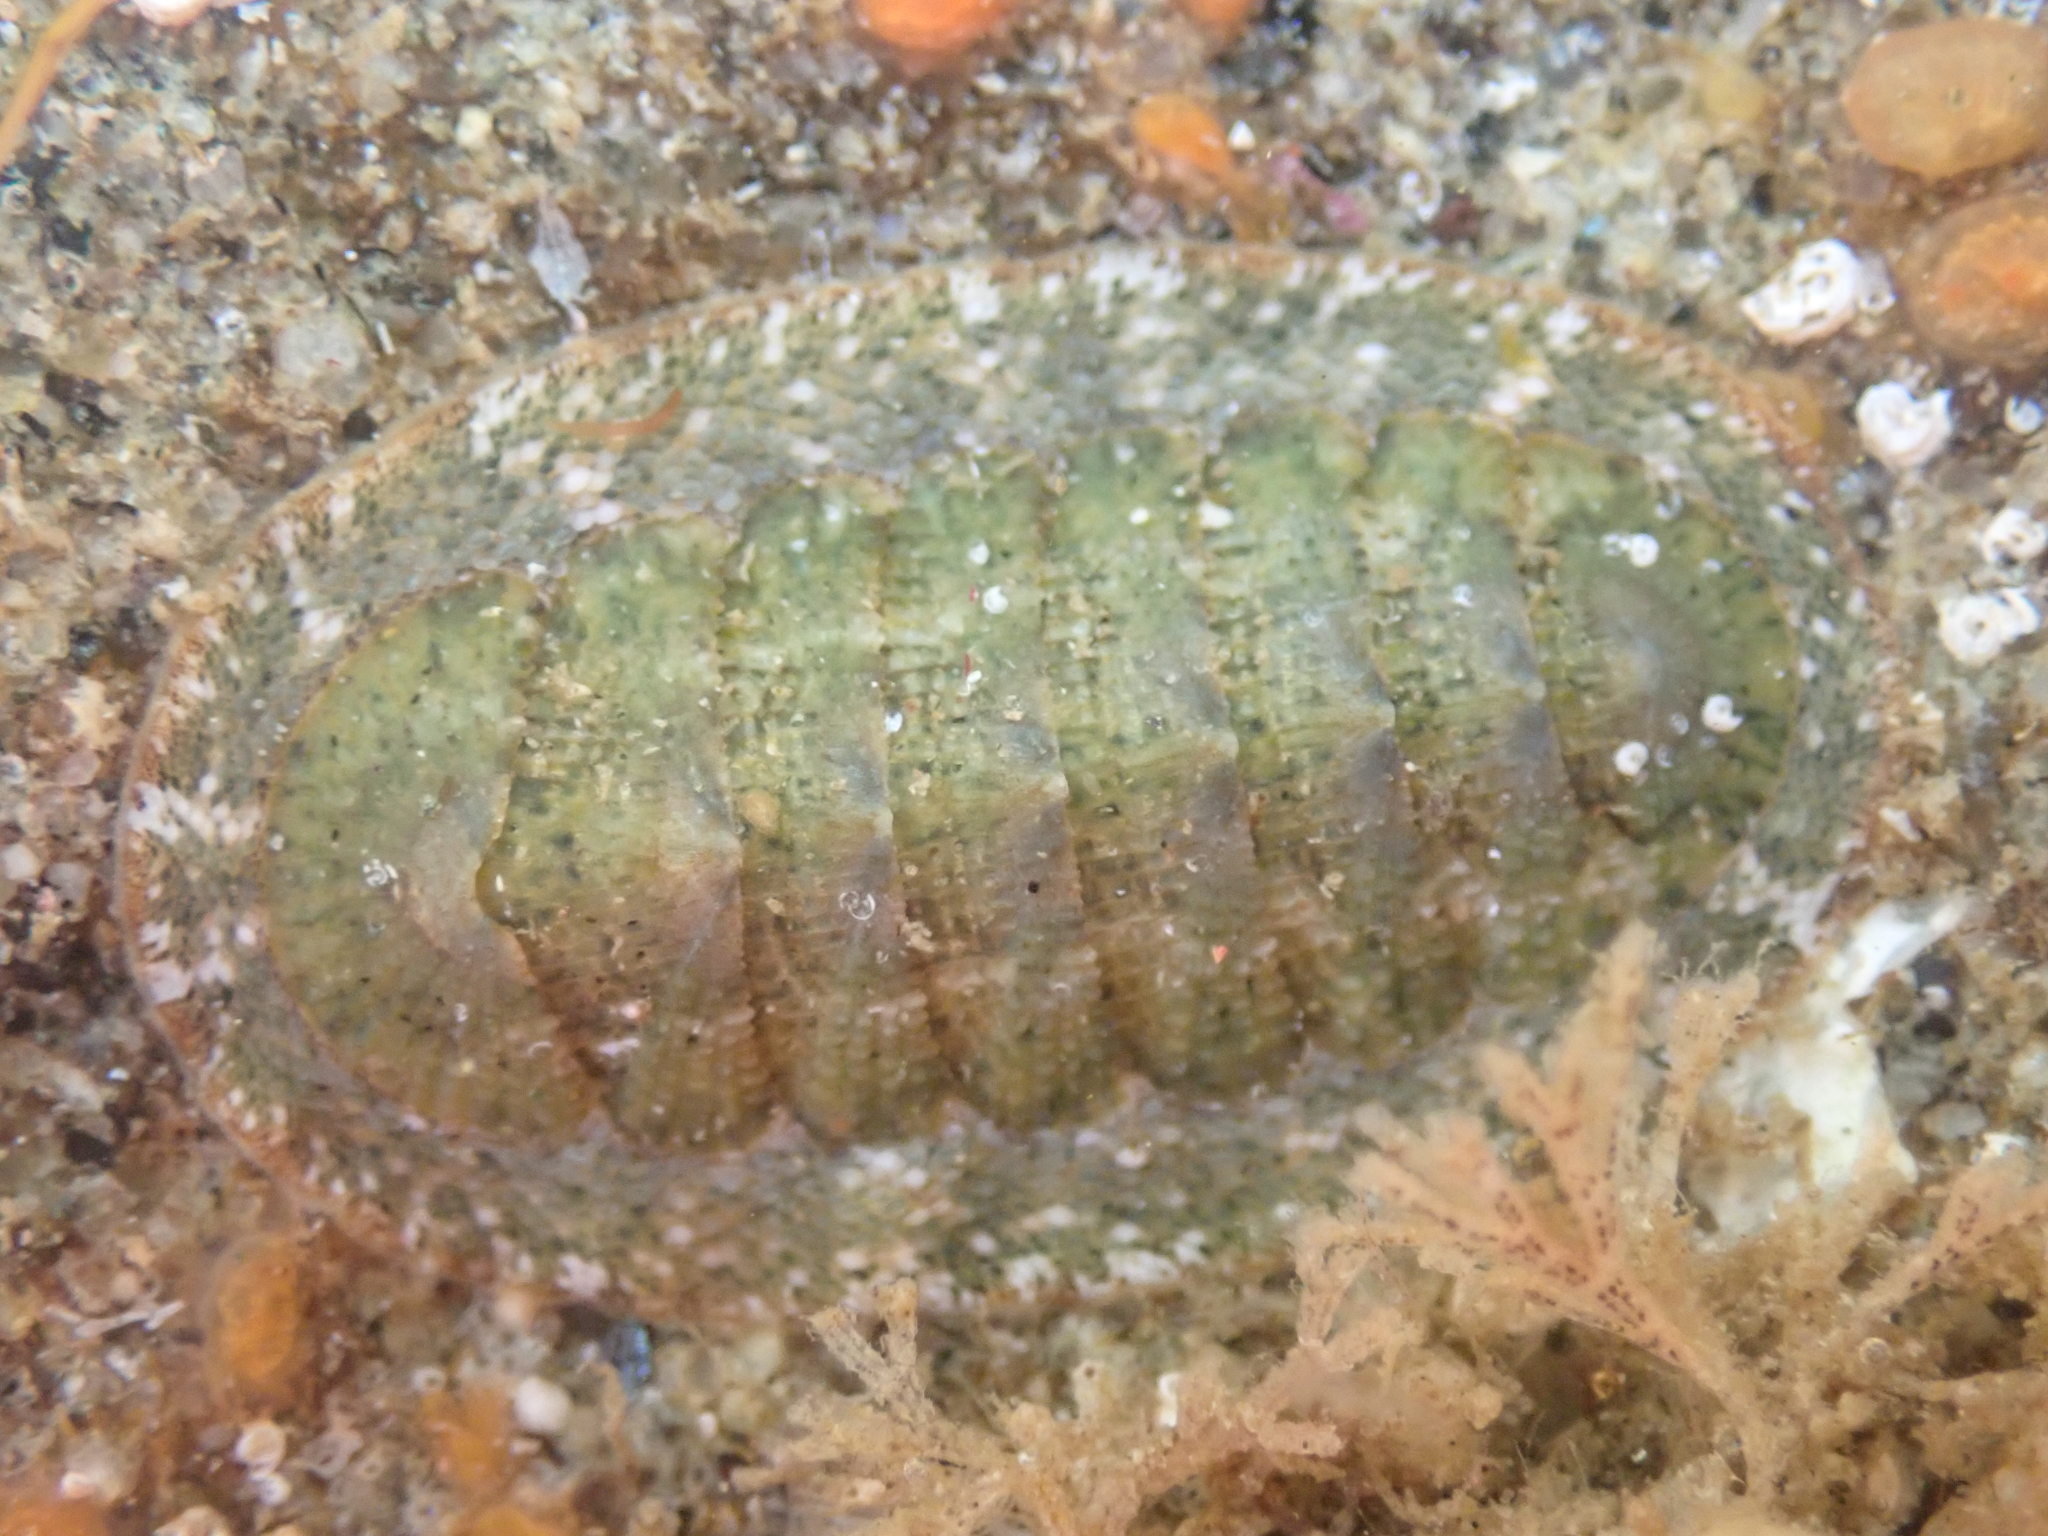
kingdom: Animalia
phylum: Mollusca
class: Polyplacophora
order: Chitonida
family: Ischnochitonidae
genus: Lepidozona
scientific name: Lepidozona pectinulata
